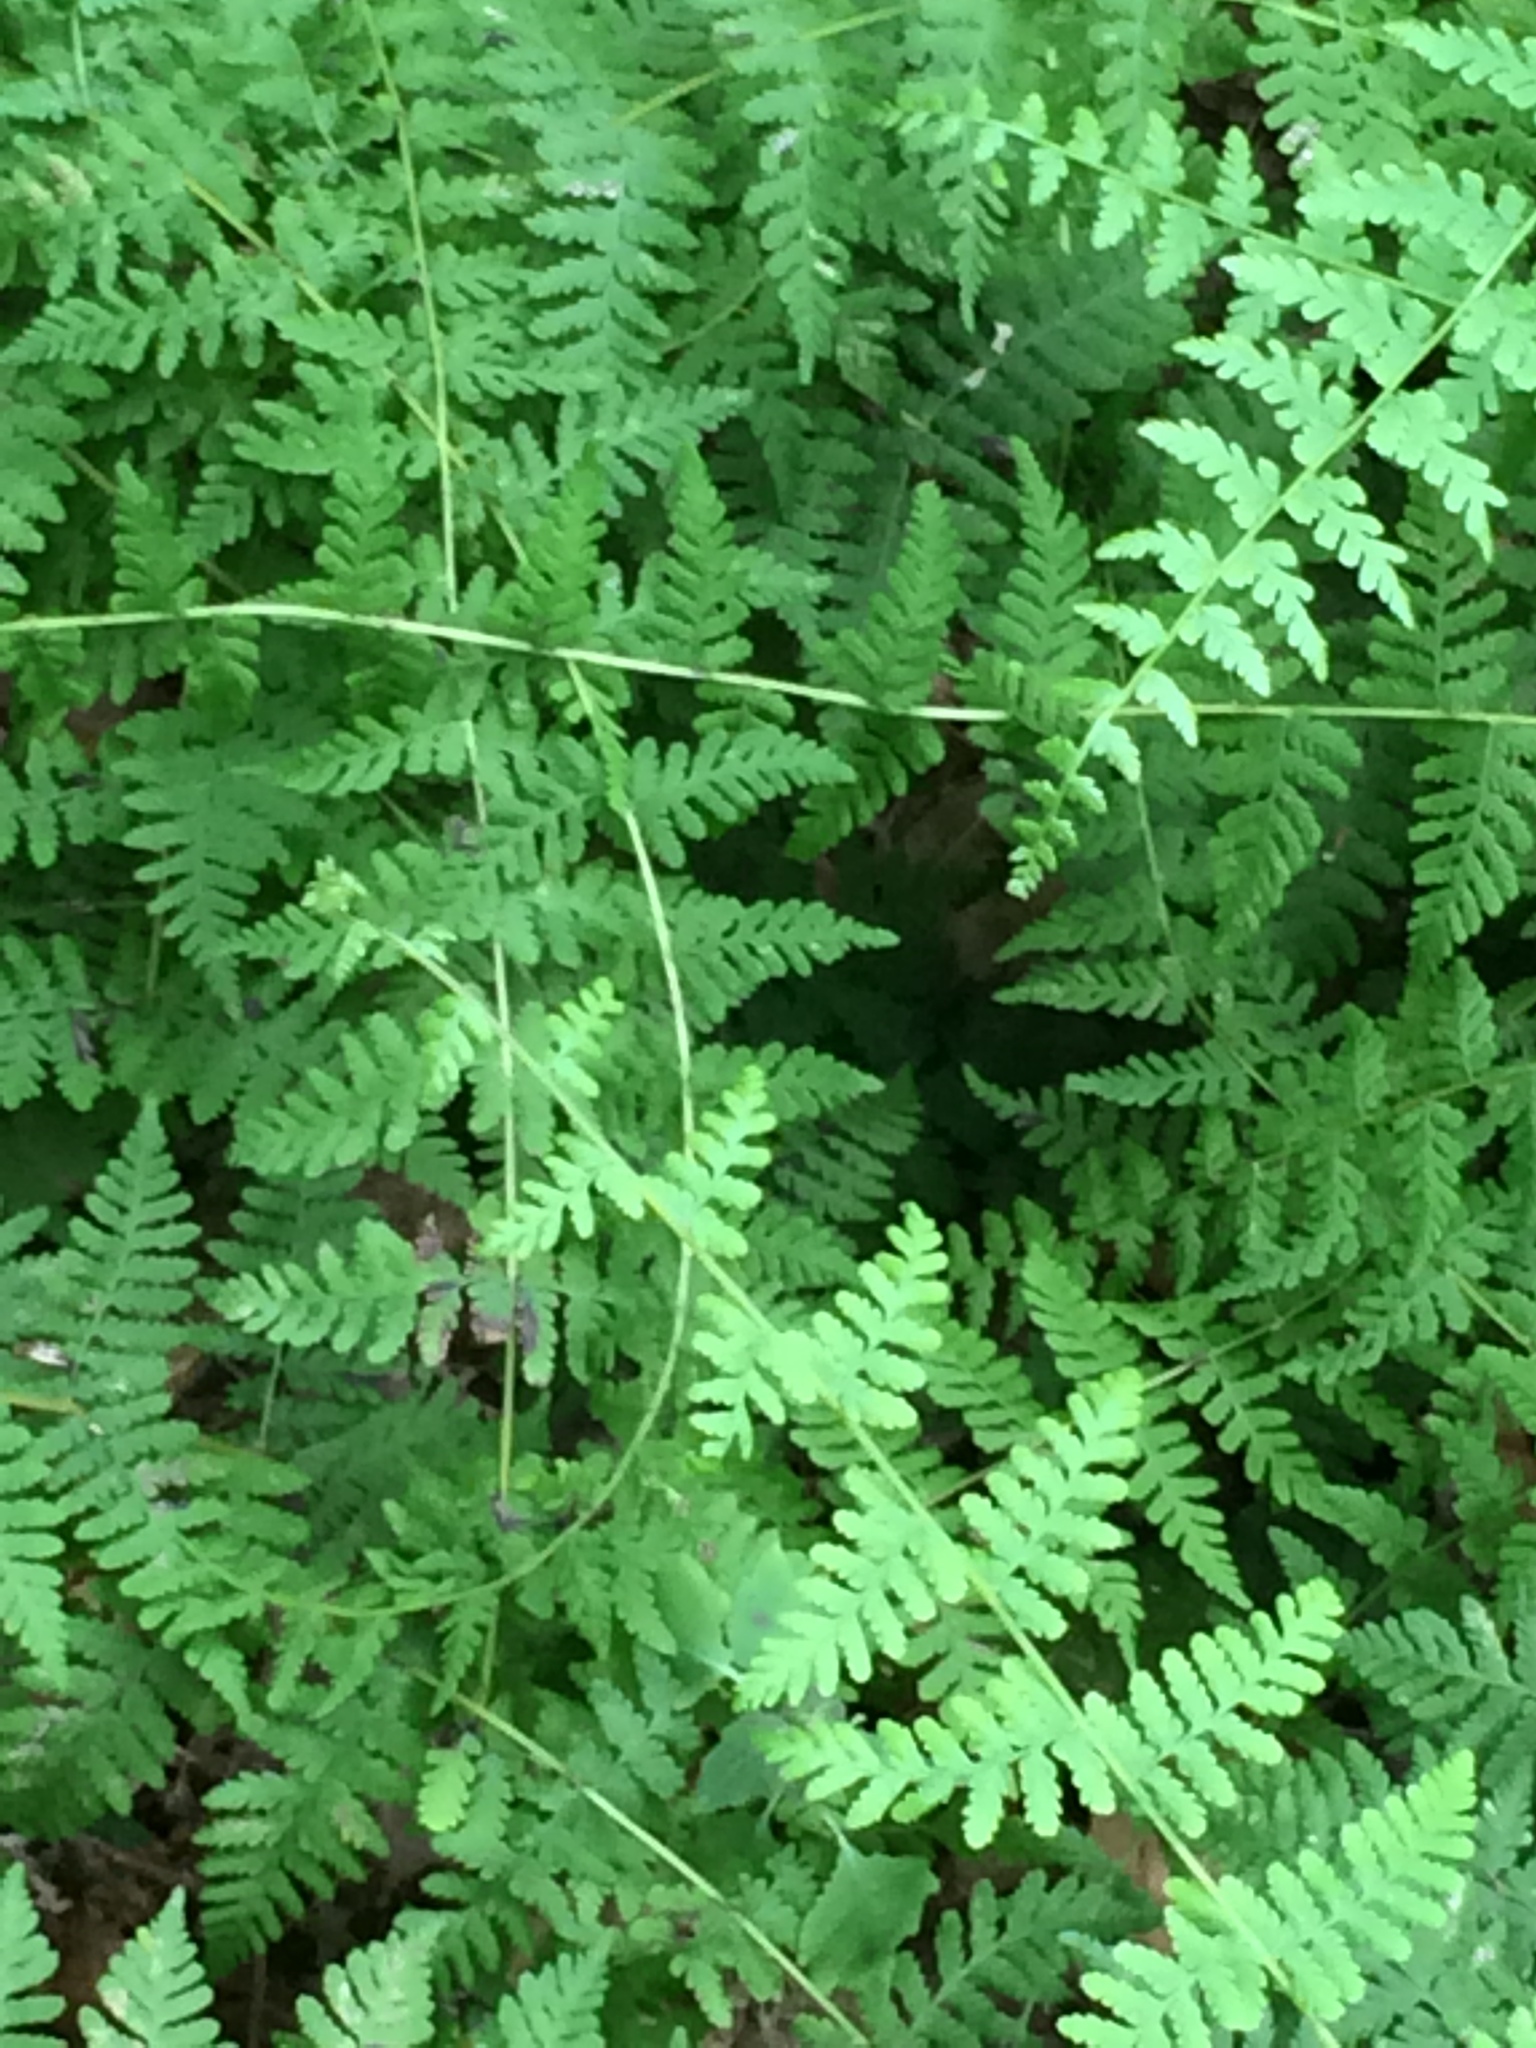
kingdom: Plantae
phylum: Tracheophyta
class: Polypodiopsida
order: Polypodiales
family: Cystopteridaceae
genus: Cystopteris
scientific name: Cystopteris bulbifera
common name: Bulblet bladder fern
